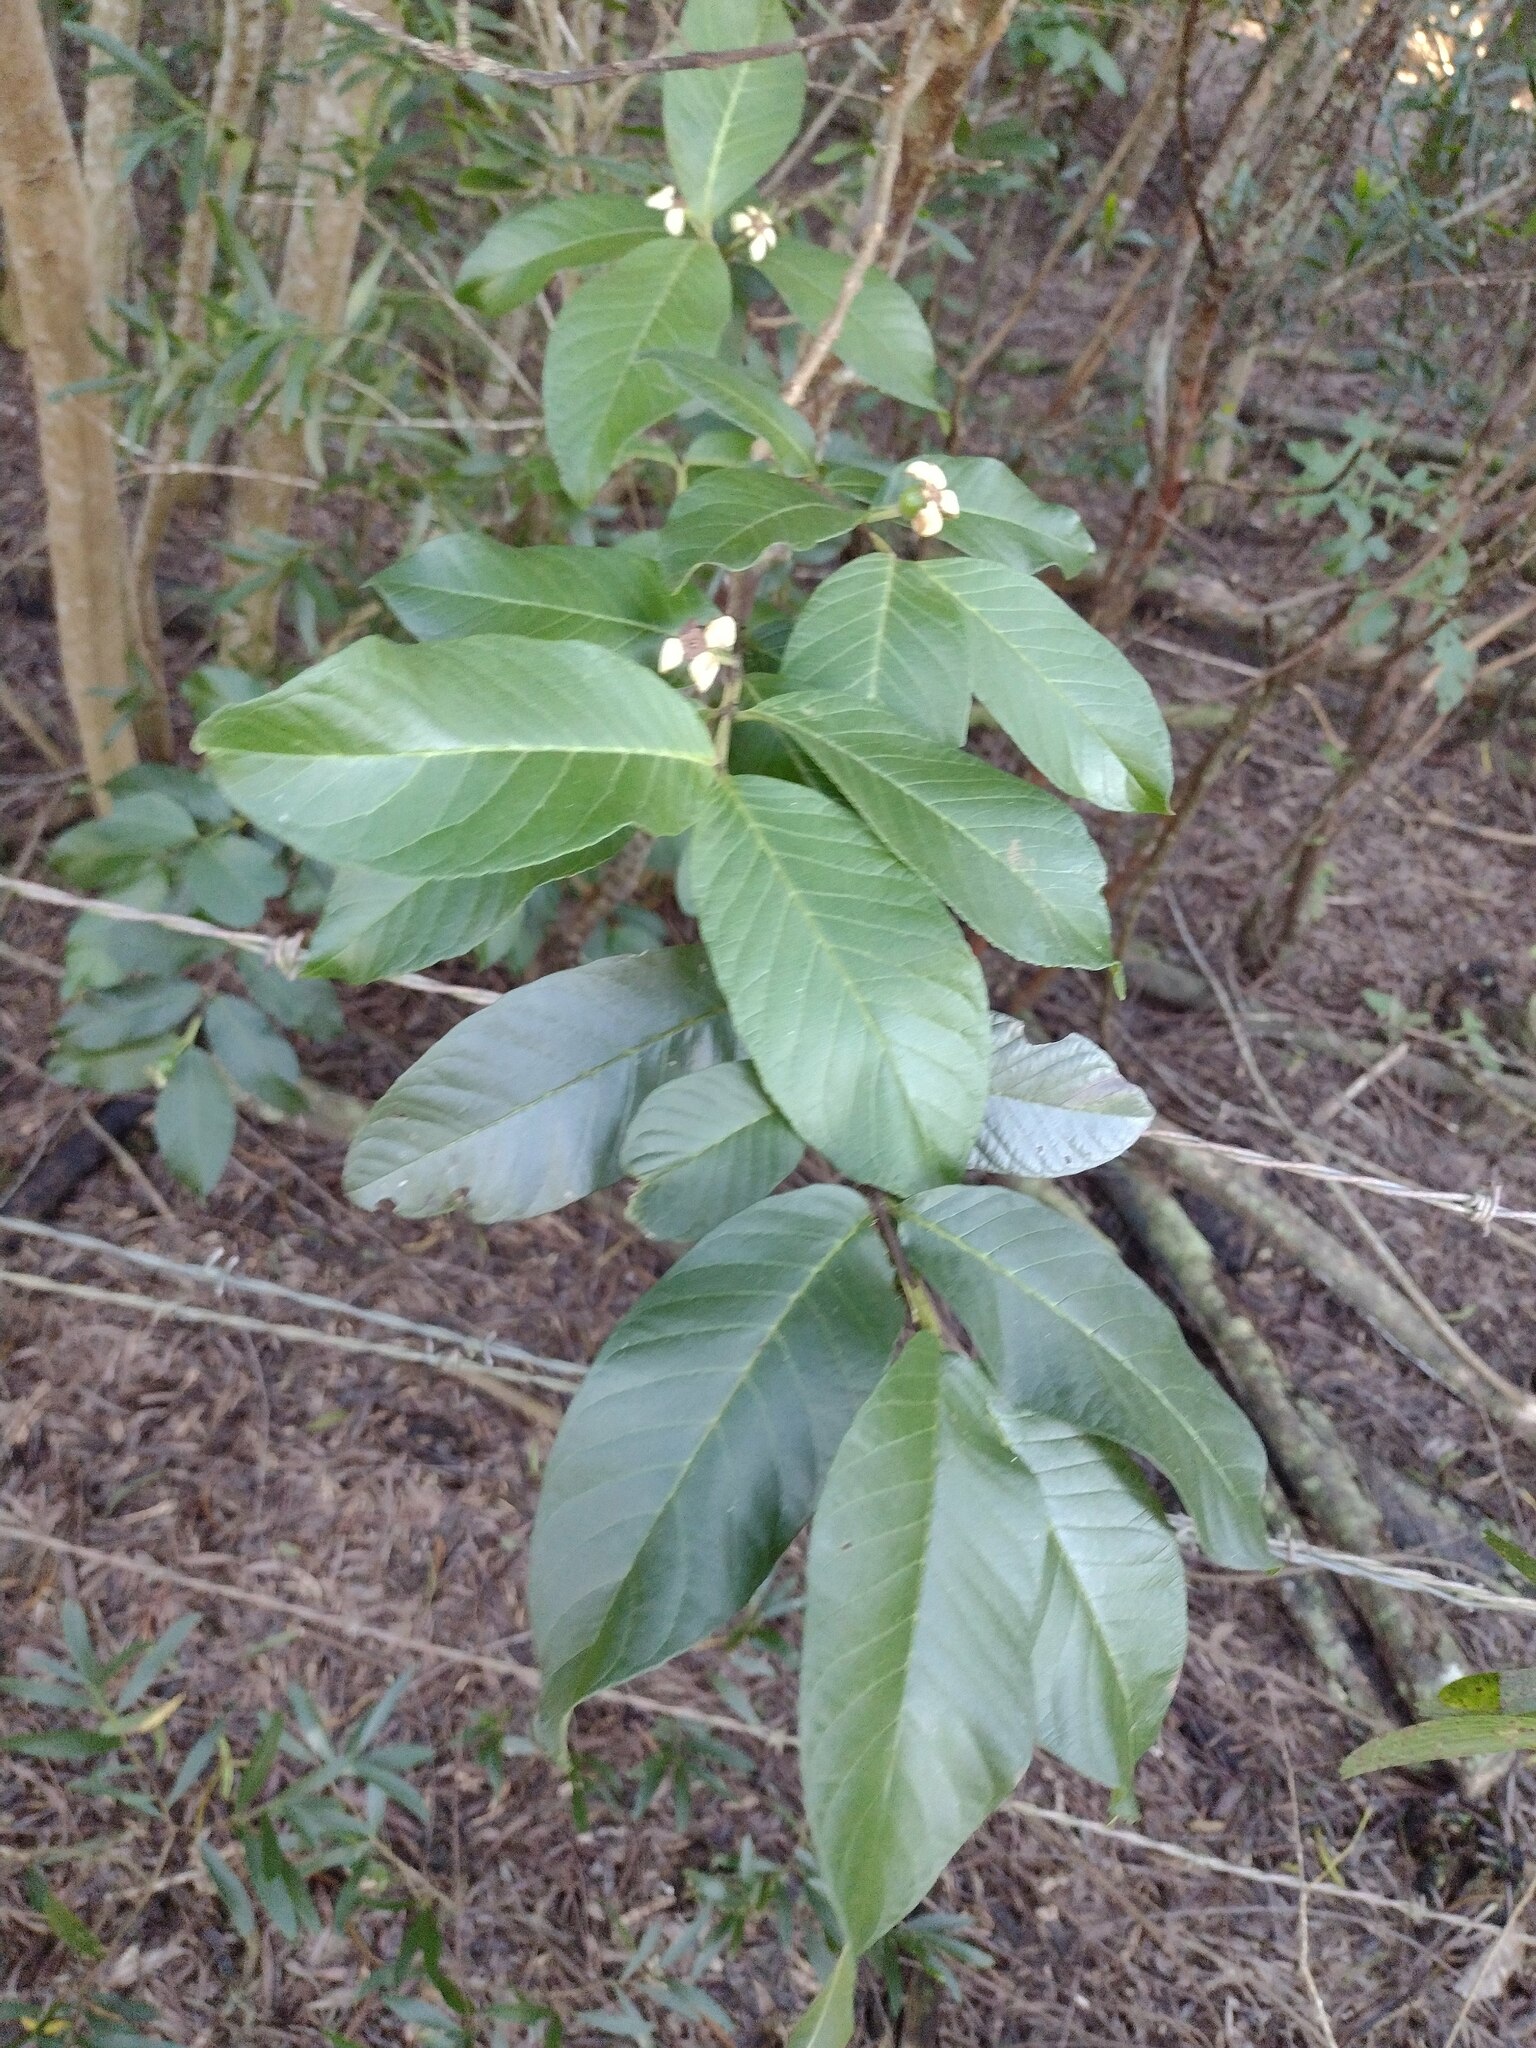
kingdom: Plantae
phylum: Tracheophyta
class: Magnoliopsida
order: Myrtales
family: Myrtaceae
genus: Psidium
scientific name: Psidium guajava
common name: Guava
